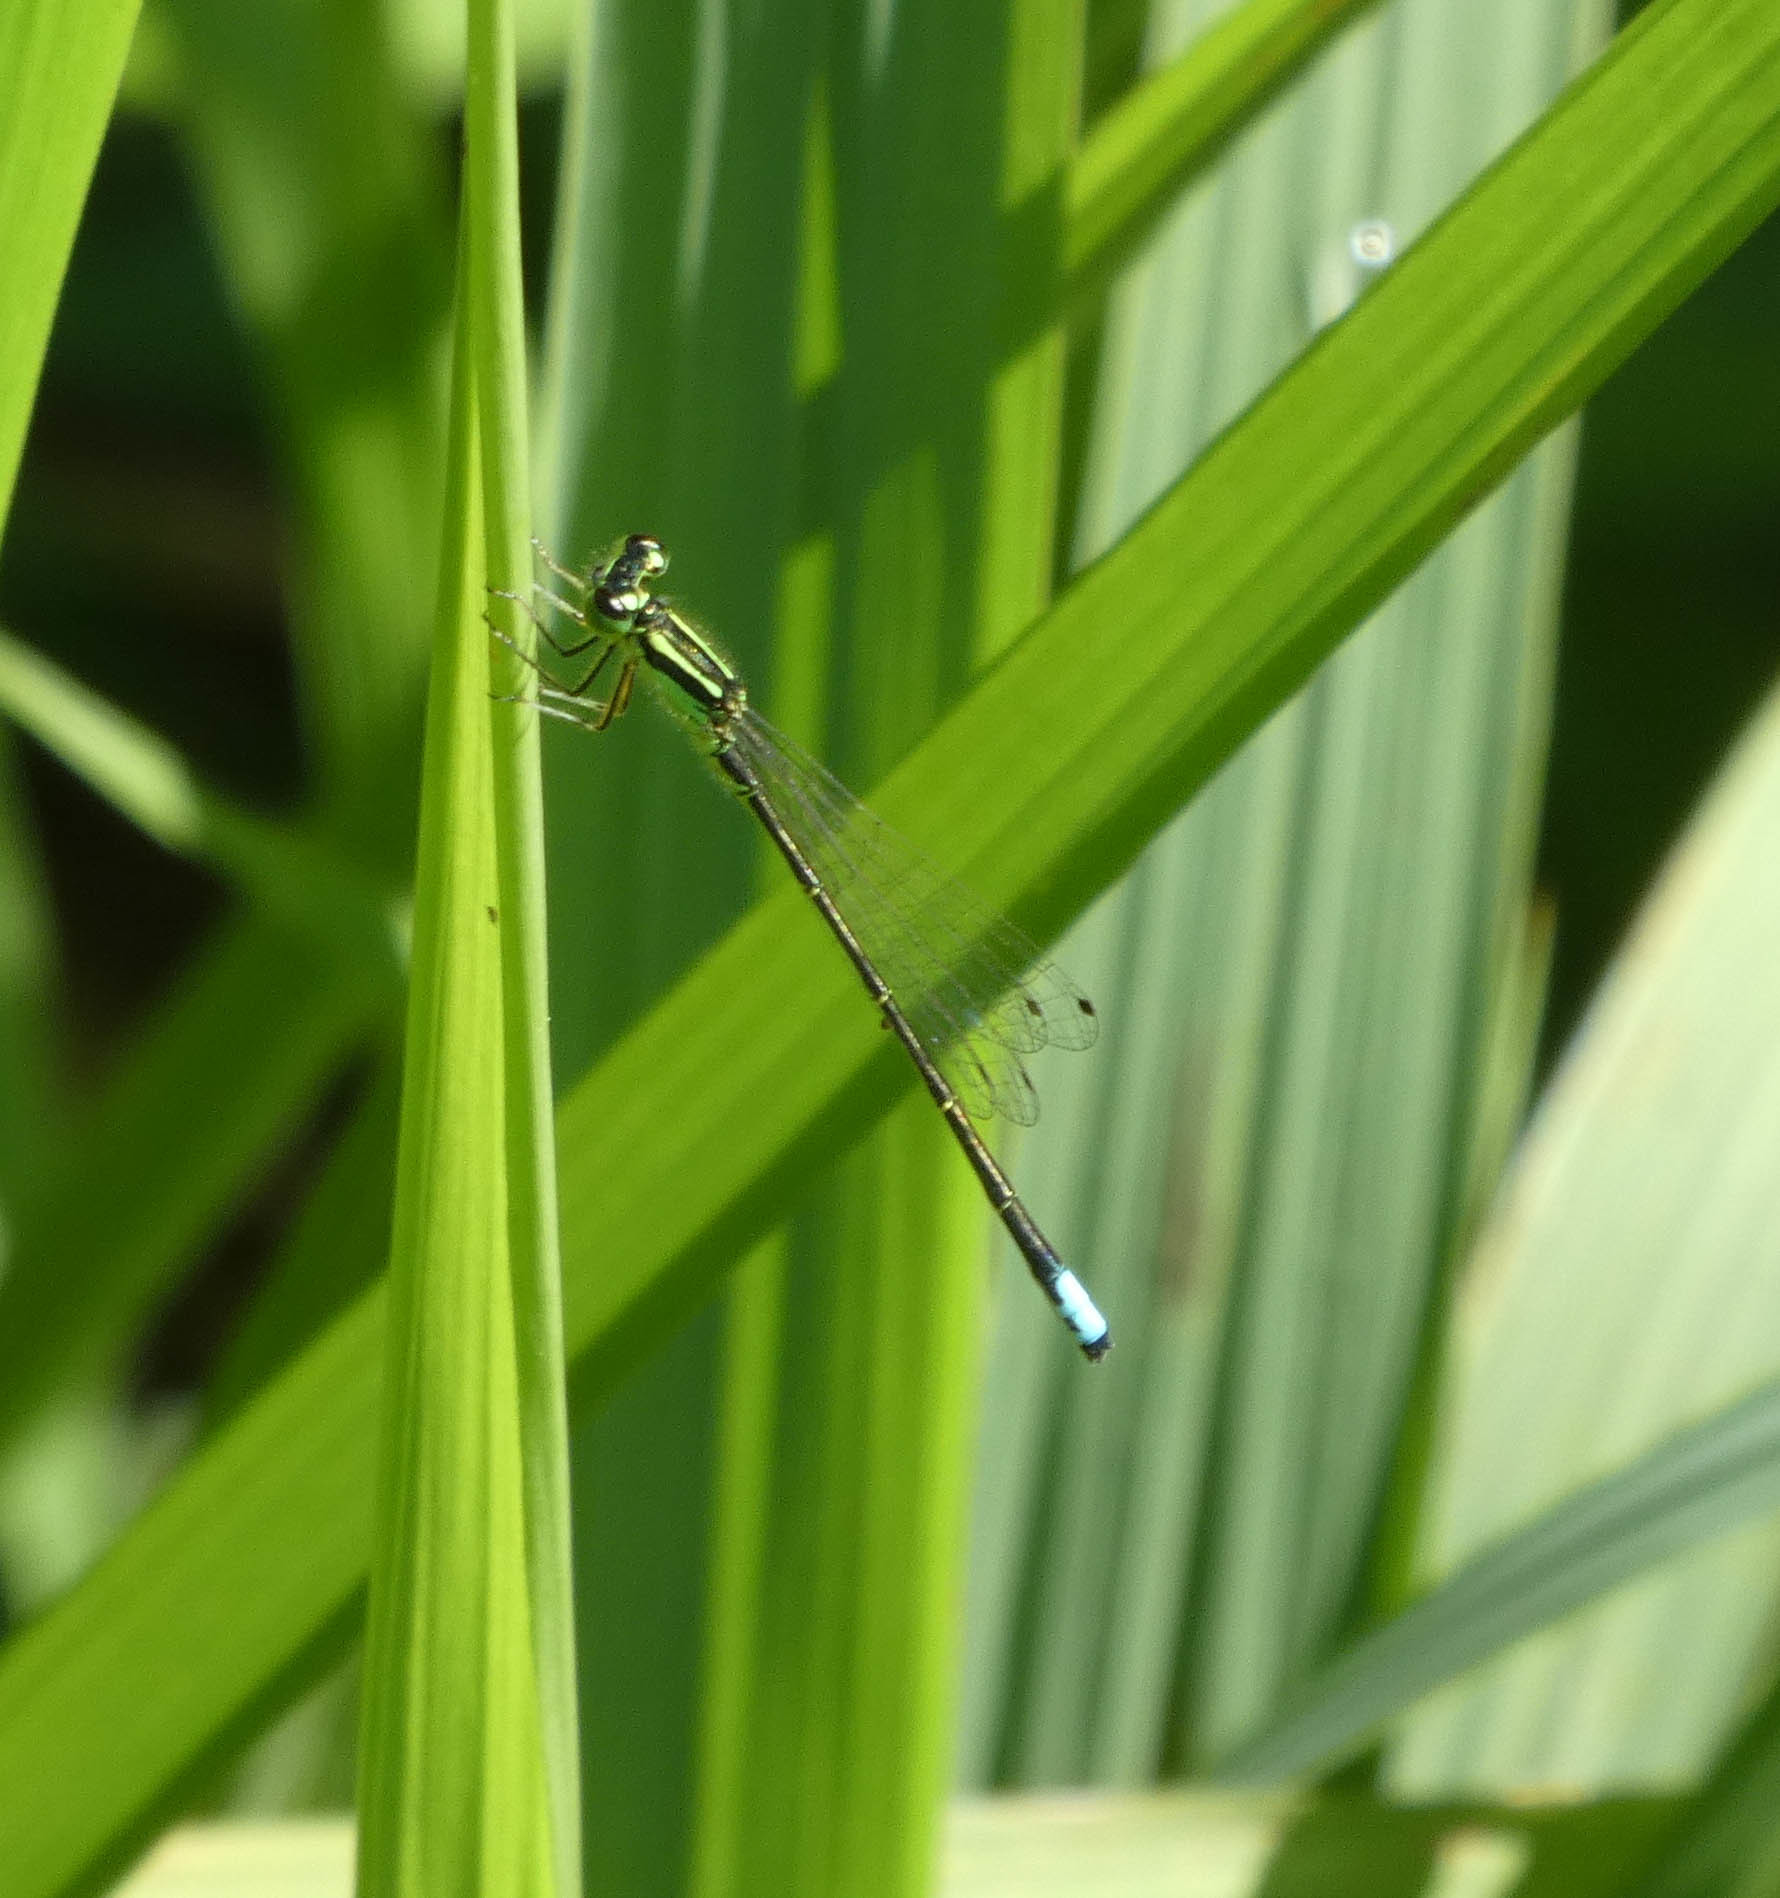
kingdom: Animalia
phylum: Arthropoda
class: Insecta
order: Odonata
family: Coenagrionidae
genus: Ischnura
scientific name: Ischnura verticalis
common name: Eastern forktail
